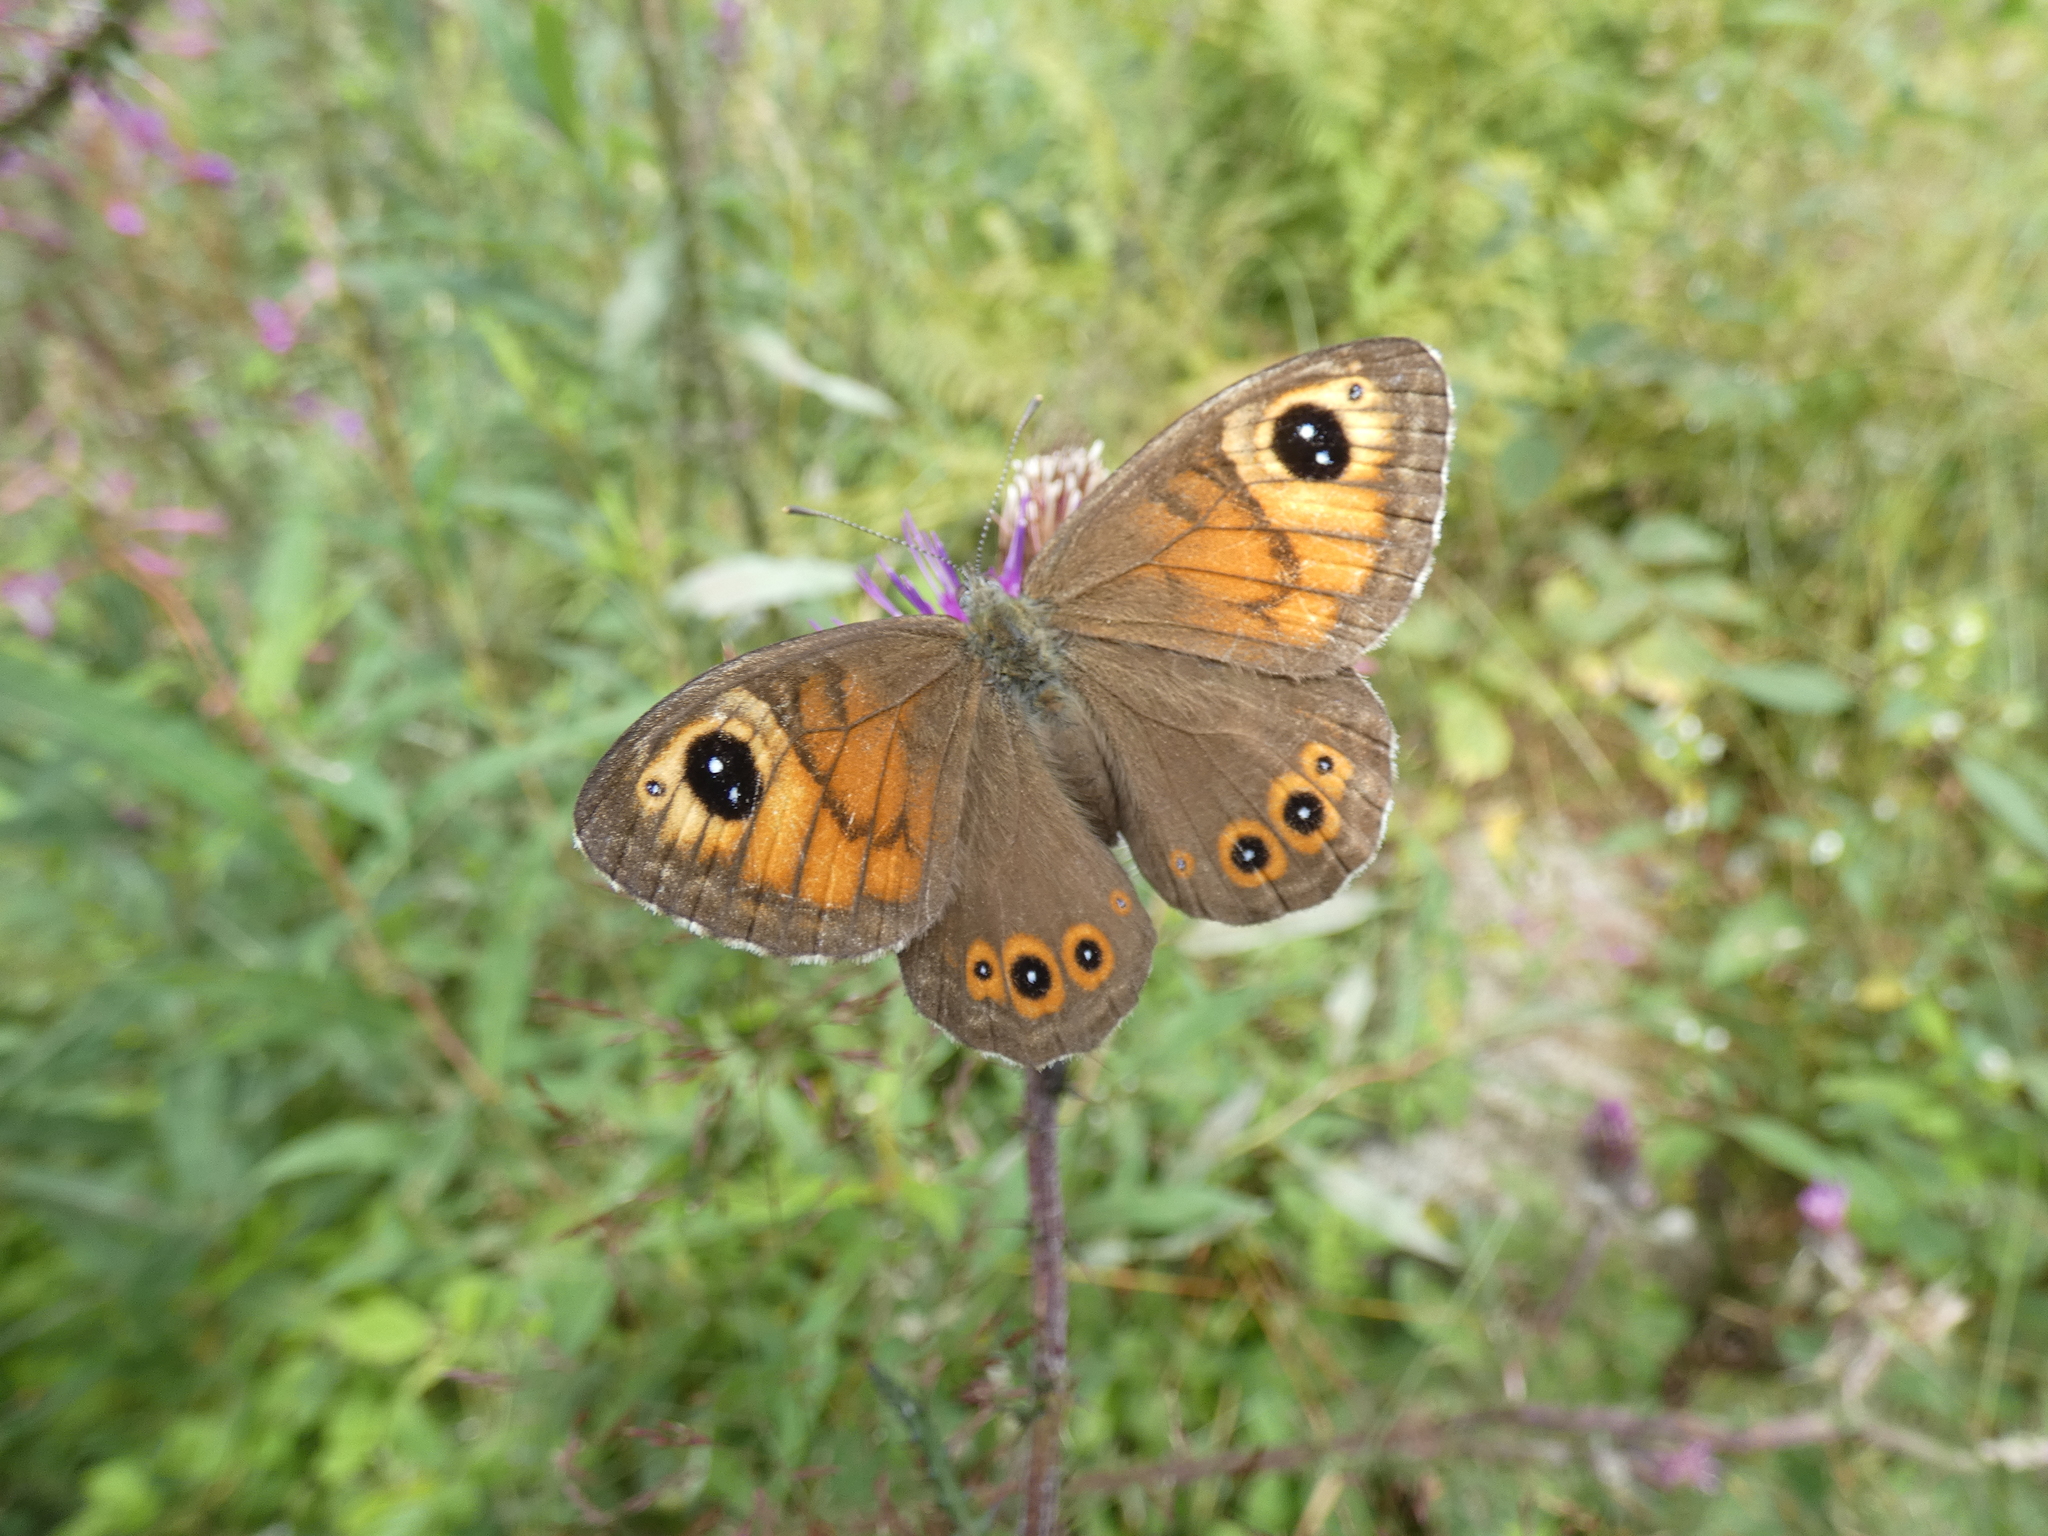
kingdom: Animalia
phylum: Arthropoda
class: Insecta
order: Lepidoptera
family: Nymphalidae
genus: Pararge
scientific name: Pararge Lasiommata maera
